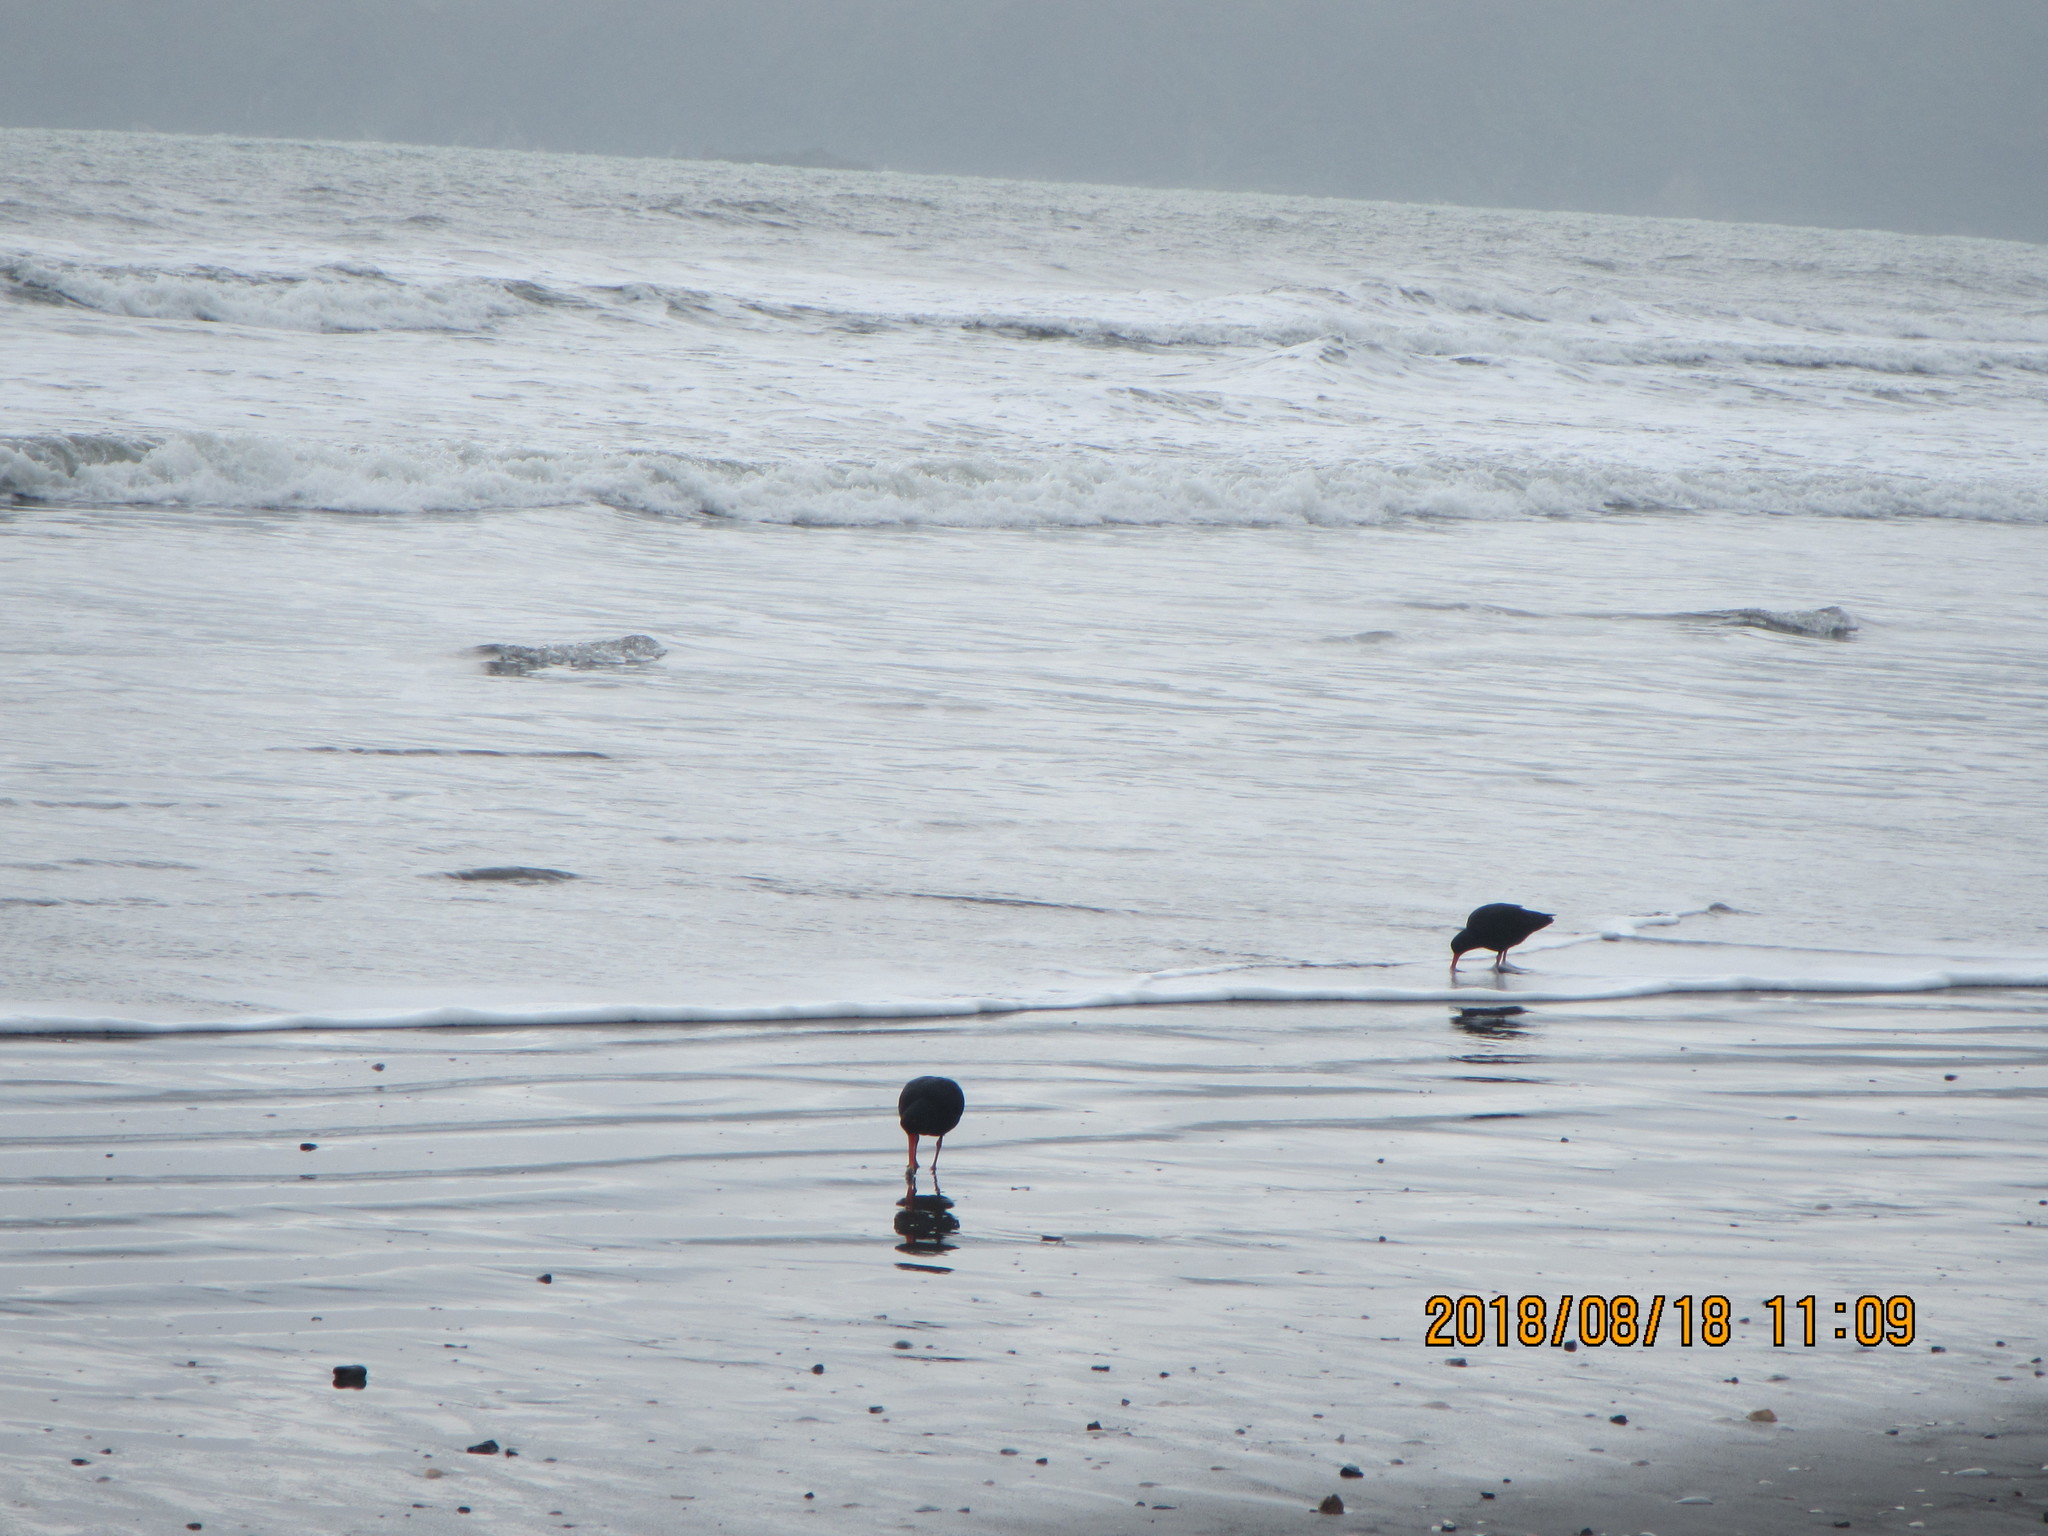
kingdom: Animalia
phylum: Chordata
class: Aves
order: Charadriiformes
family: Haematopodidae
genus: Haematopus
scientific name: Haematopus unicolor
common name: Variable oystercatcher
